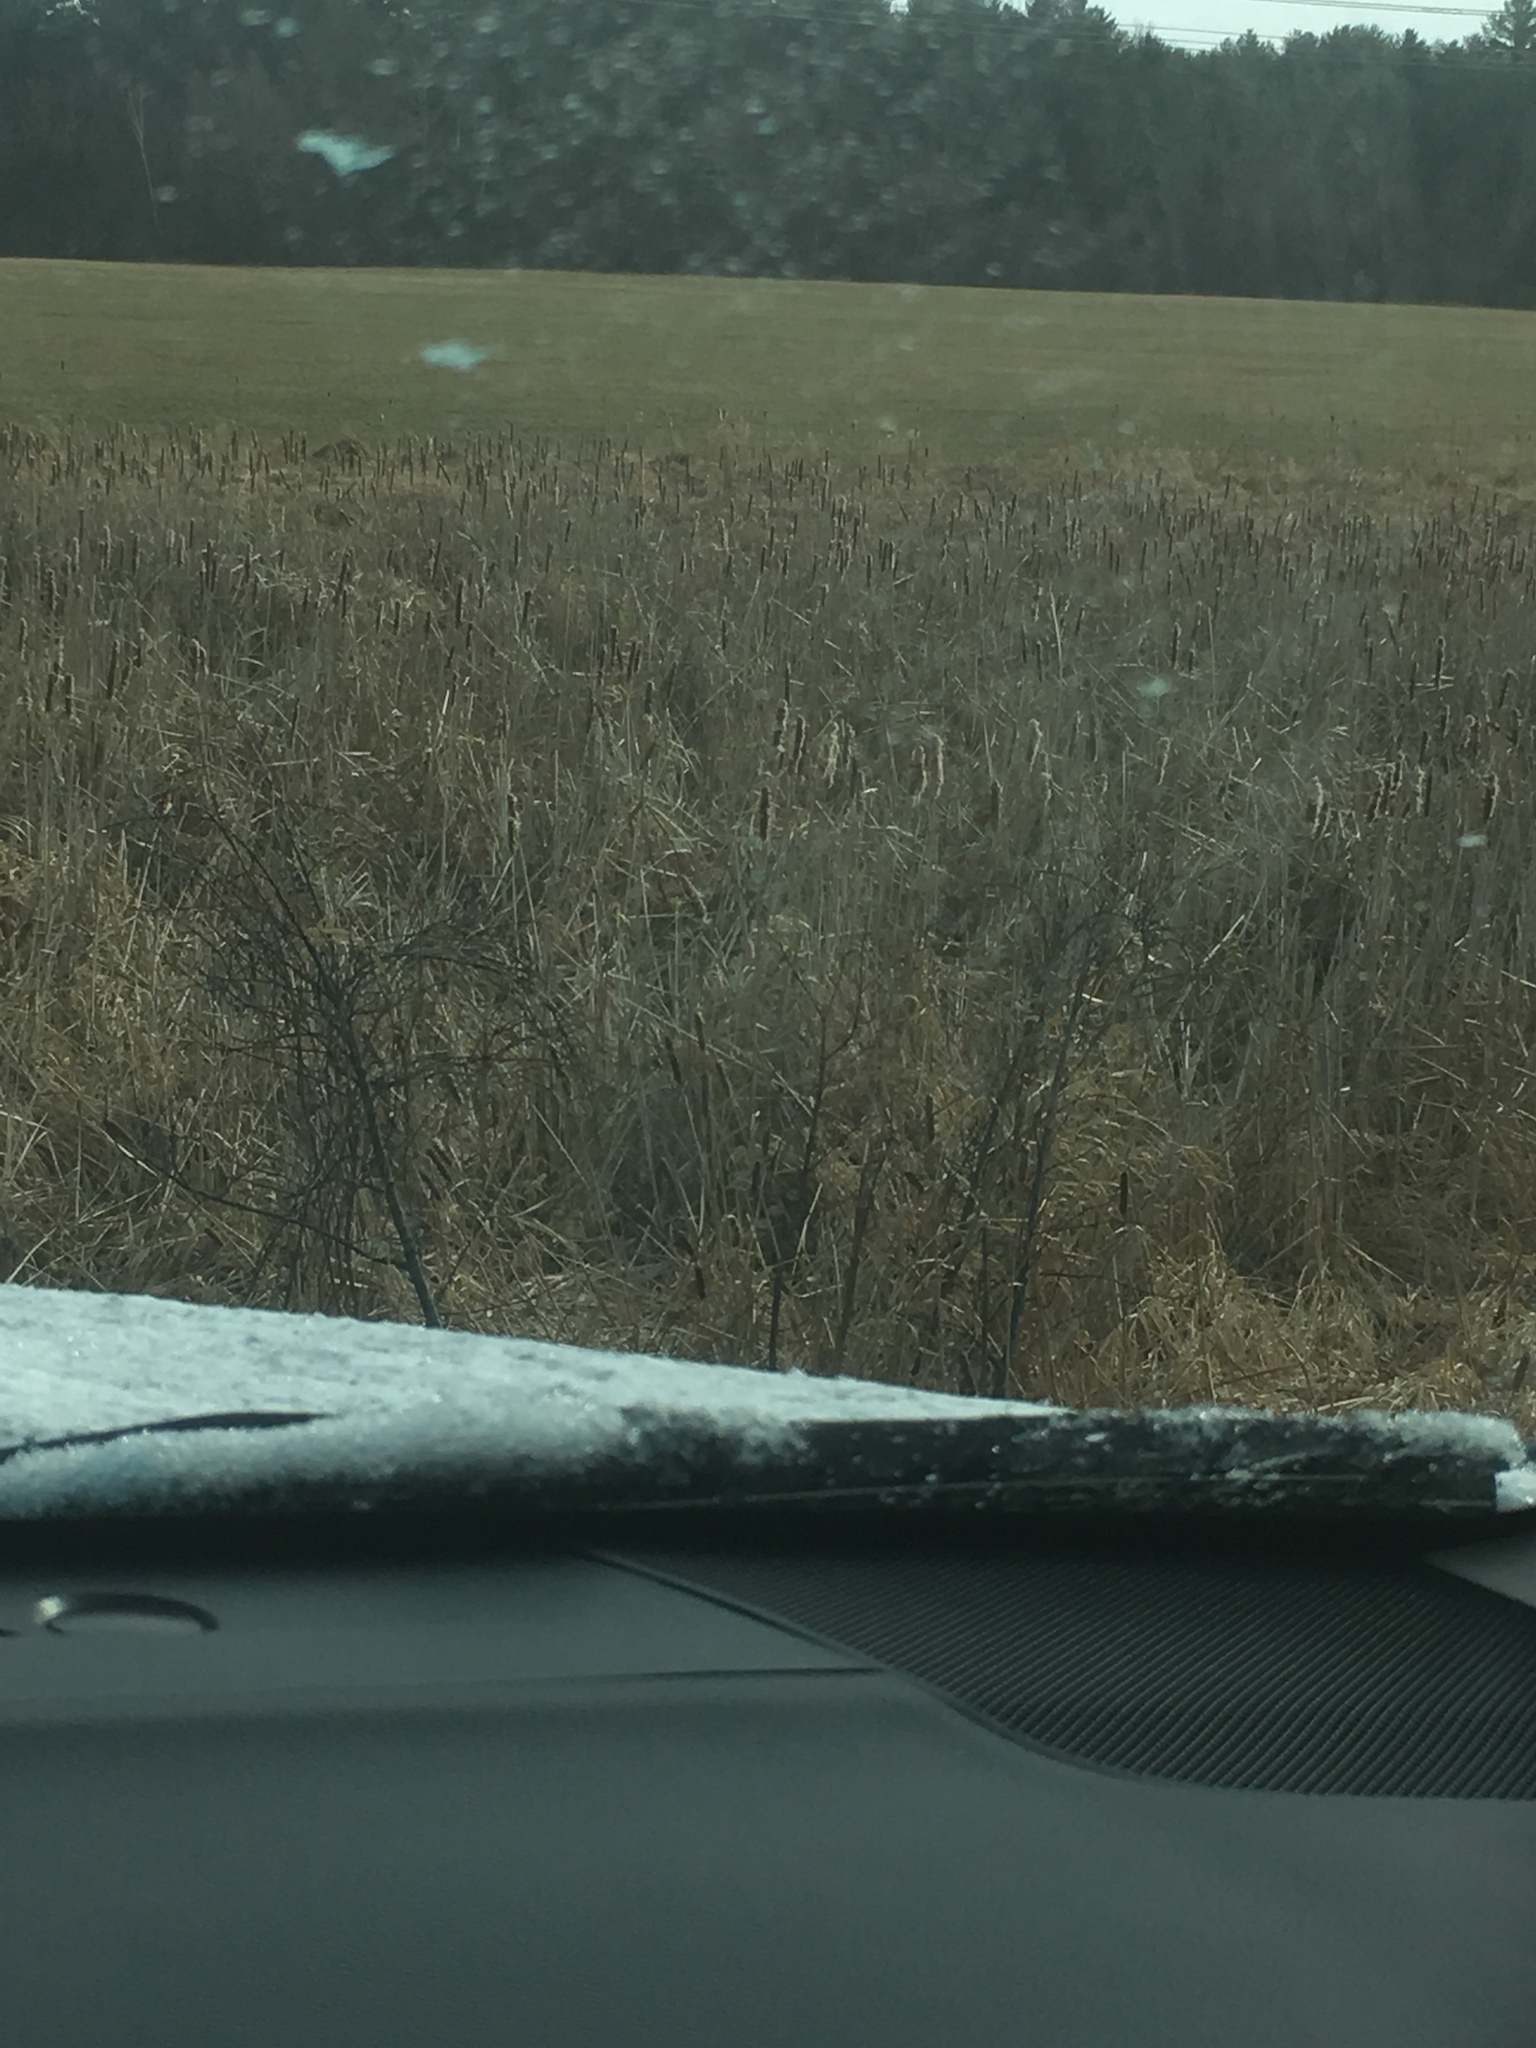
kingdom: Plantae
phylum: Tracheophyta
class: Liliopsida
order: Poales
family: Typhaceae
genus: Typha
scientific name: Typha
